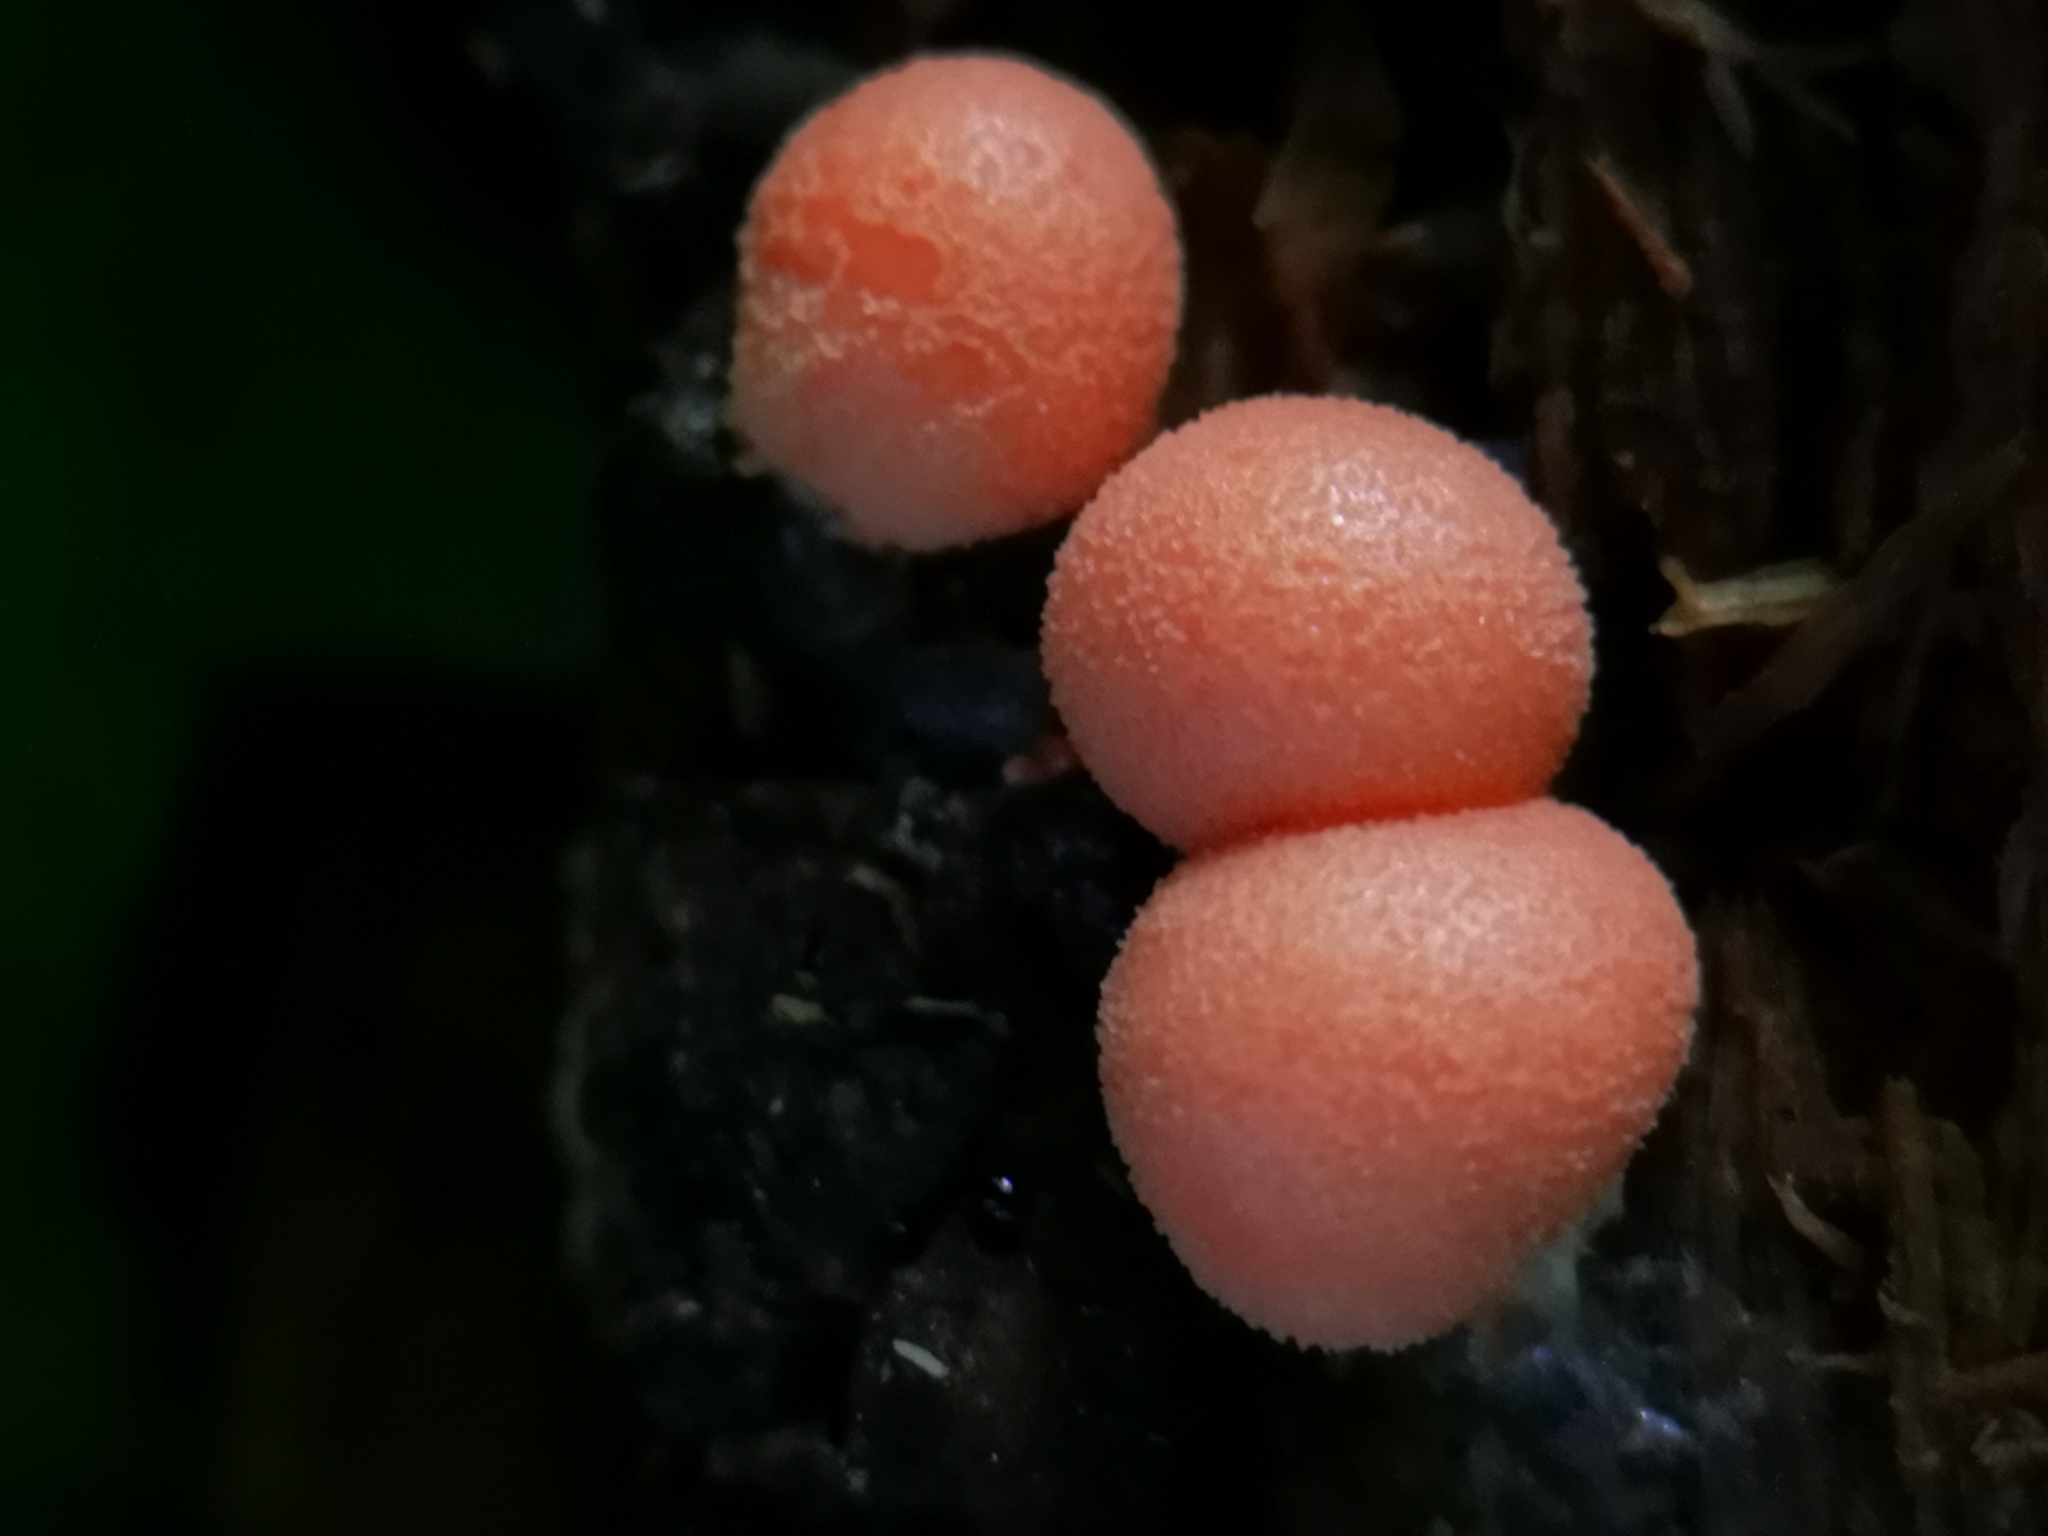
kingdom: Protozoa
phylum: Mycetozoa
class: Myxomycetes
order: Cribrariales
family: Tubiferaceae
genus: Lycogala
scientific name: Lycogala epidendrum
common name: Wolf's milk
